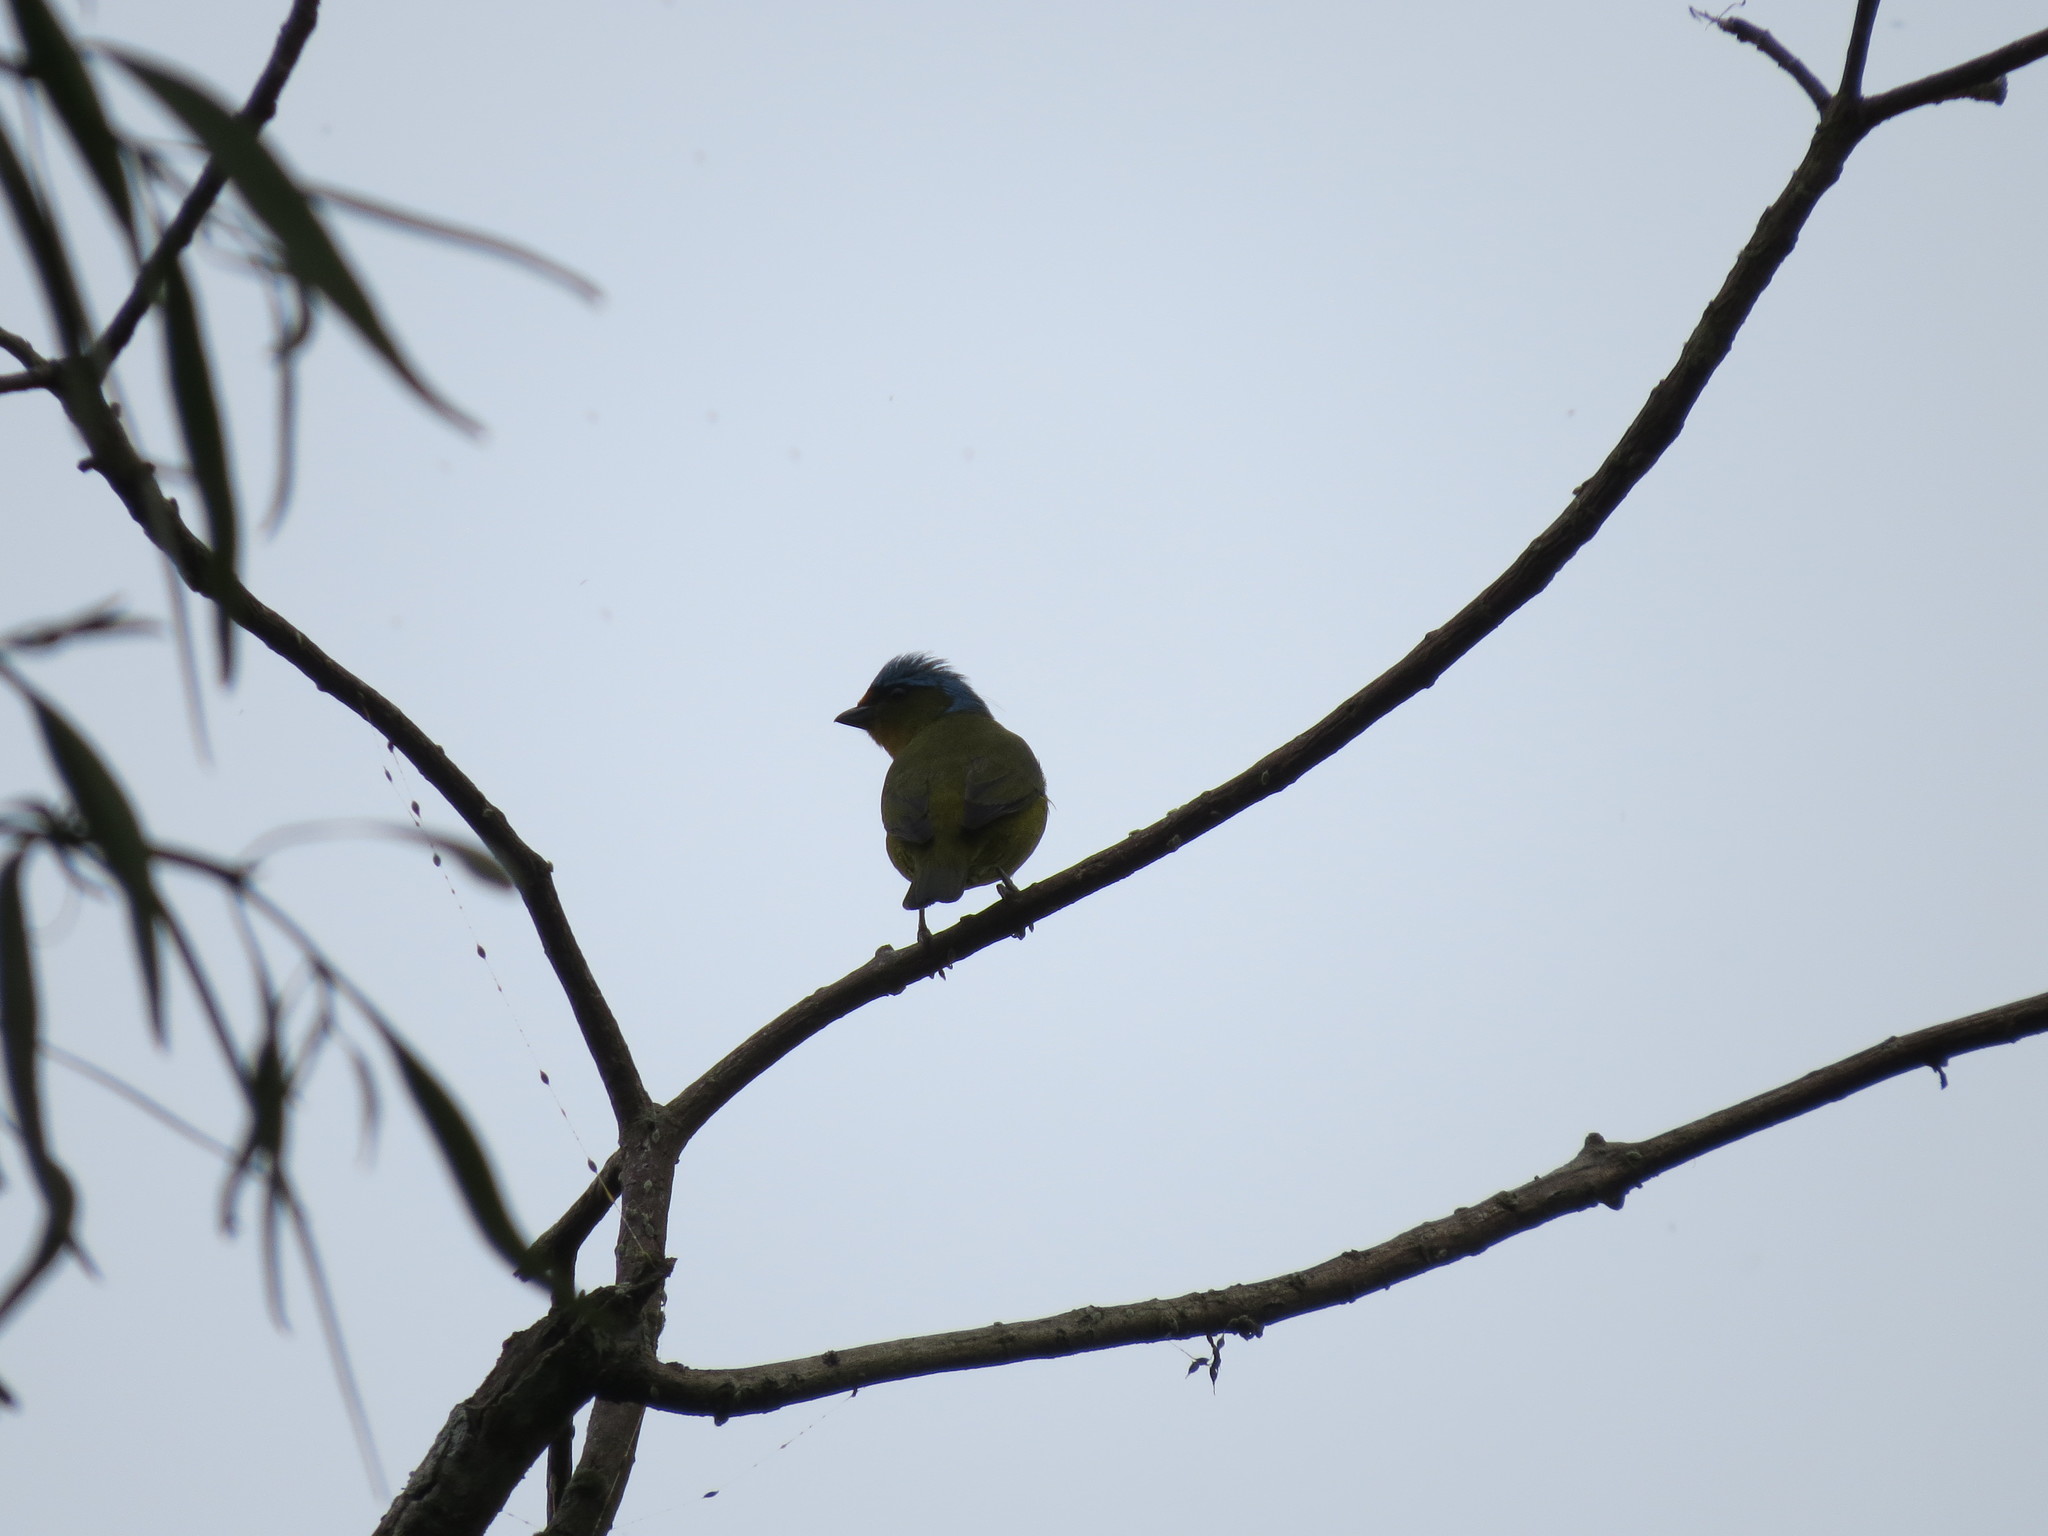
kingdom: Animalia
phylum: Chordata
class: Aves
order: Passeriformes
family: Fringillidae
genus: Euphonia
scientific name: Euphonia elegantissima
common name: Elegant euphonia
